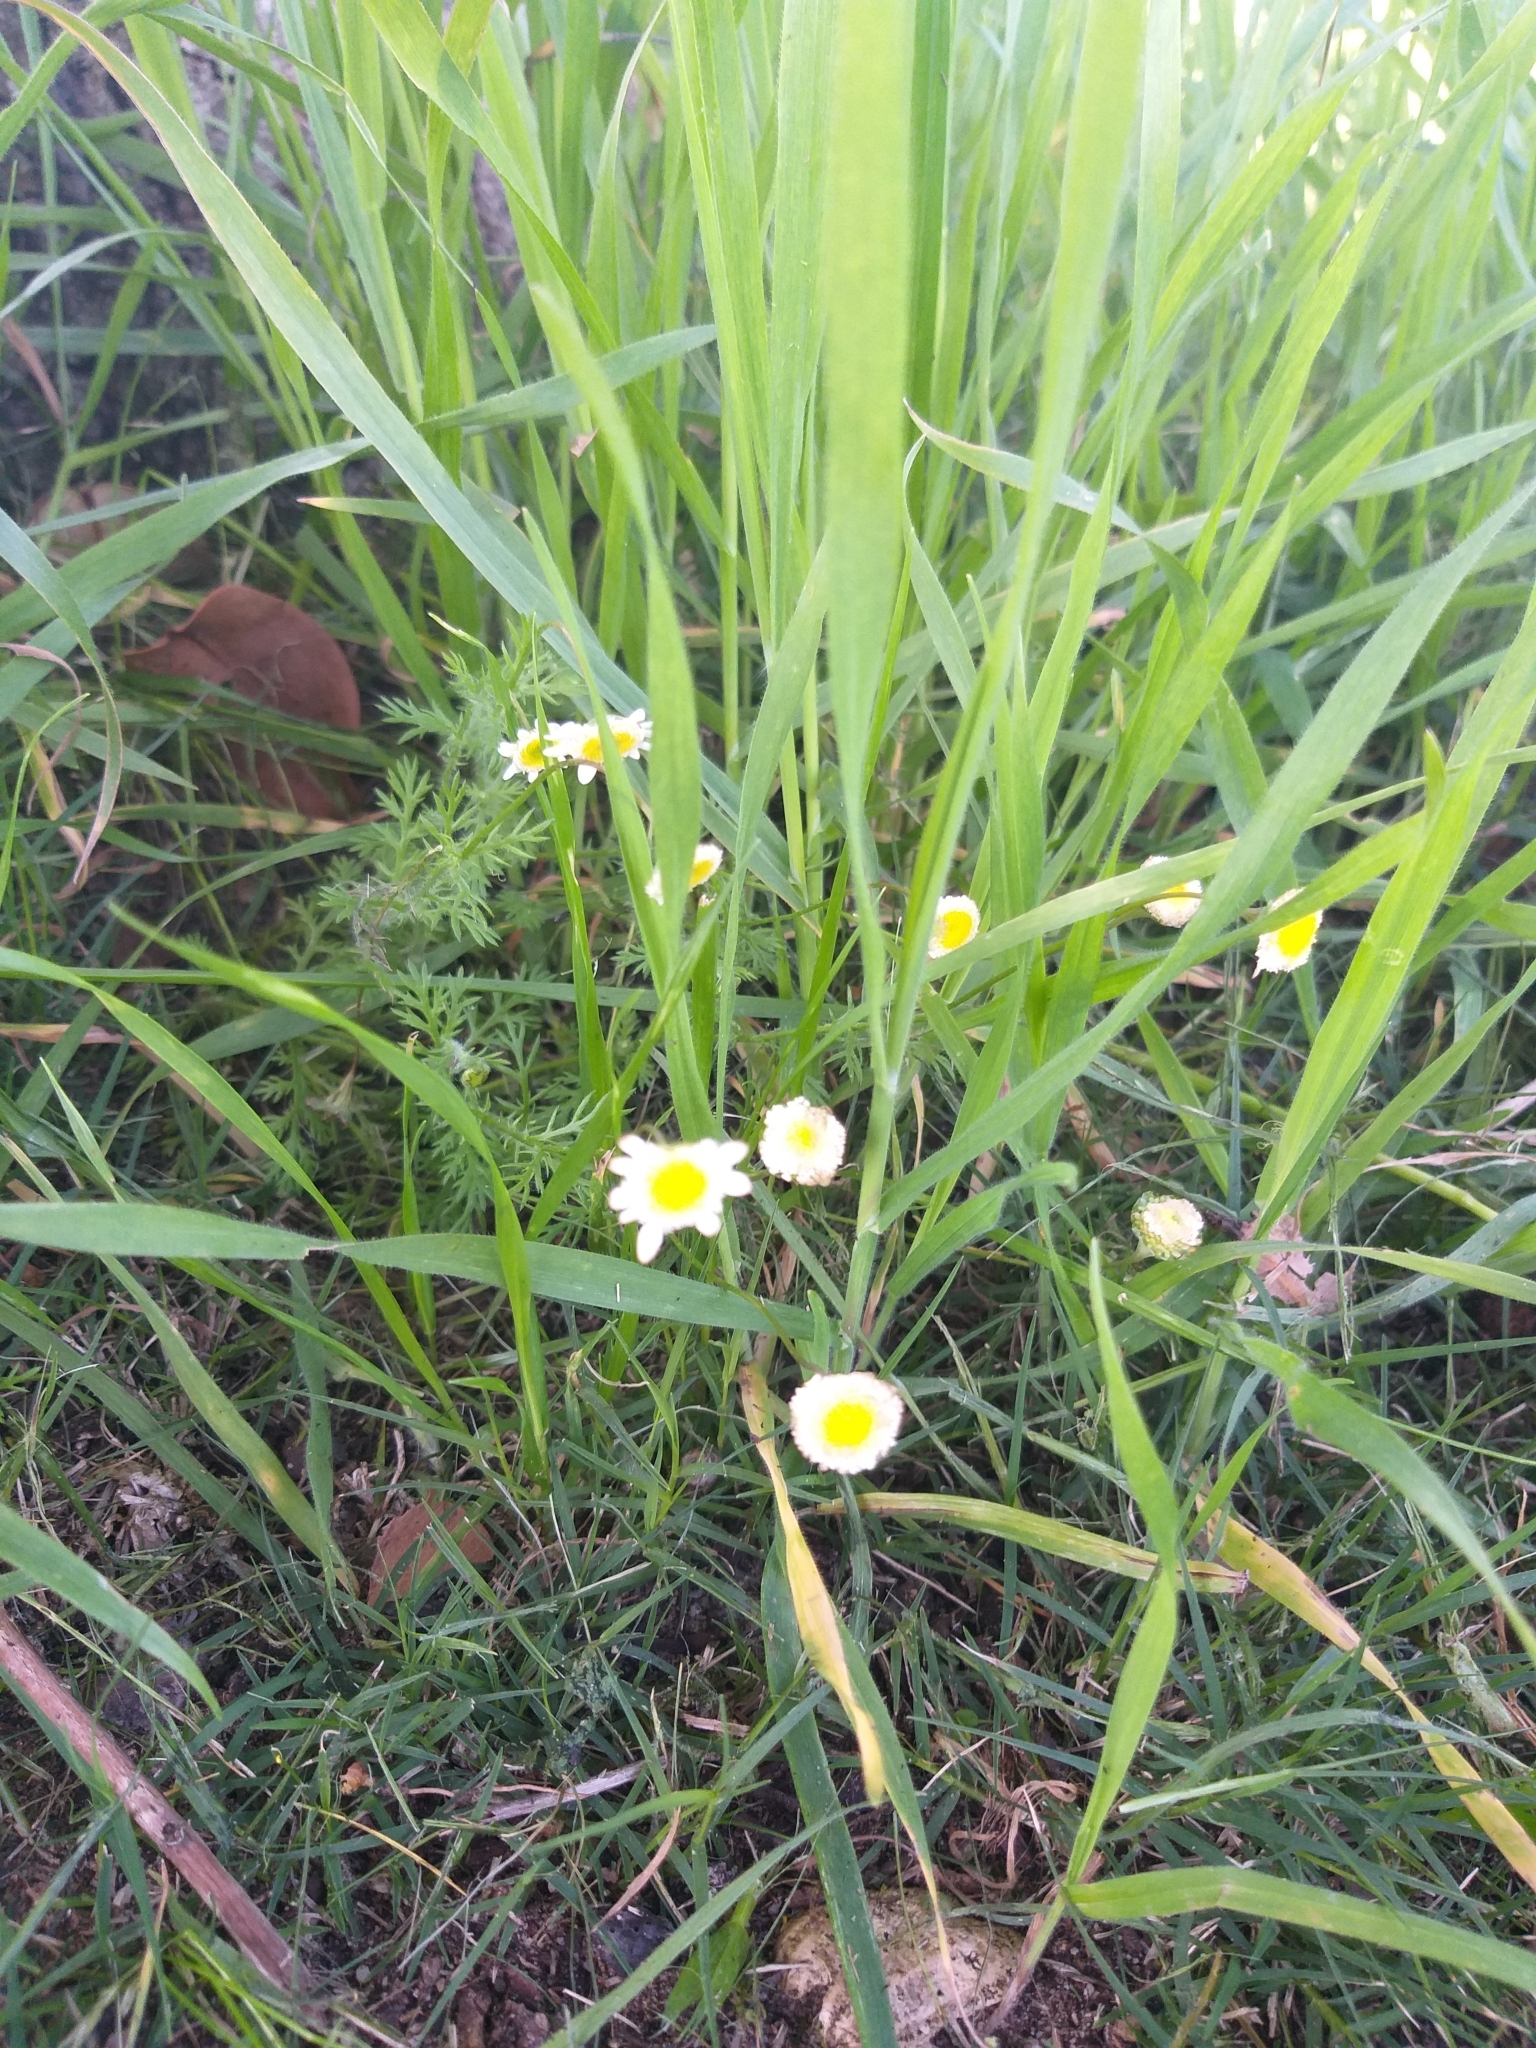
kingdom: Plantae
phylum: Tracheophyta
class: Magnoliopsida
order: Asterales
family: Asteraceae
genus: Cotula
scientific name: Cotula turbinata
